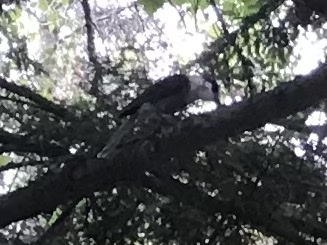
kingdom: Animalia
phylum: Chordata
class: Aves
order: Passeriformes
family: Corvidae
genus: Perisoreus
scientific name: Perisoreus canadensis
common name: Gray jay
